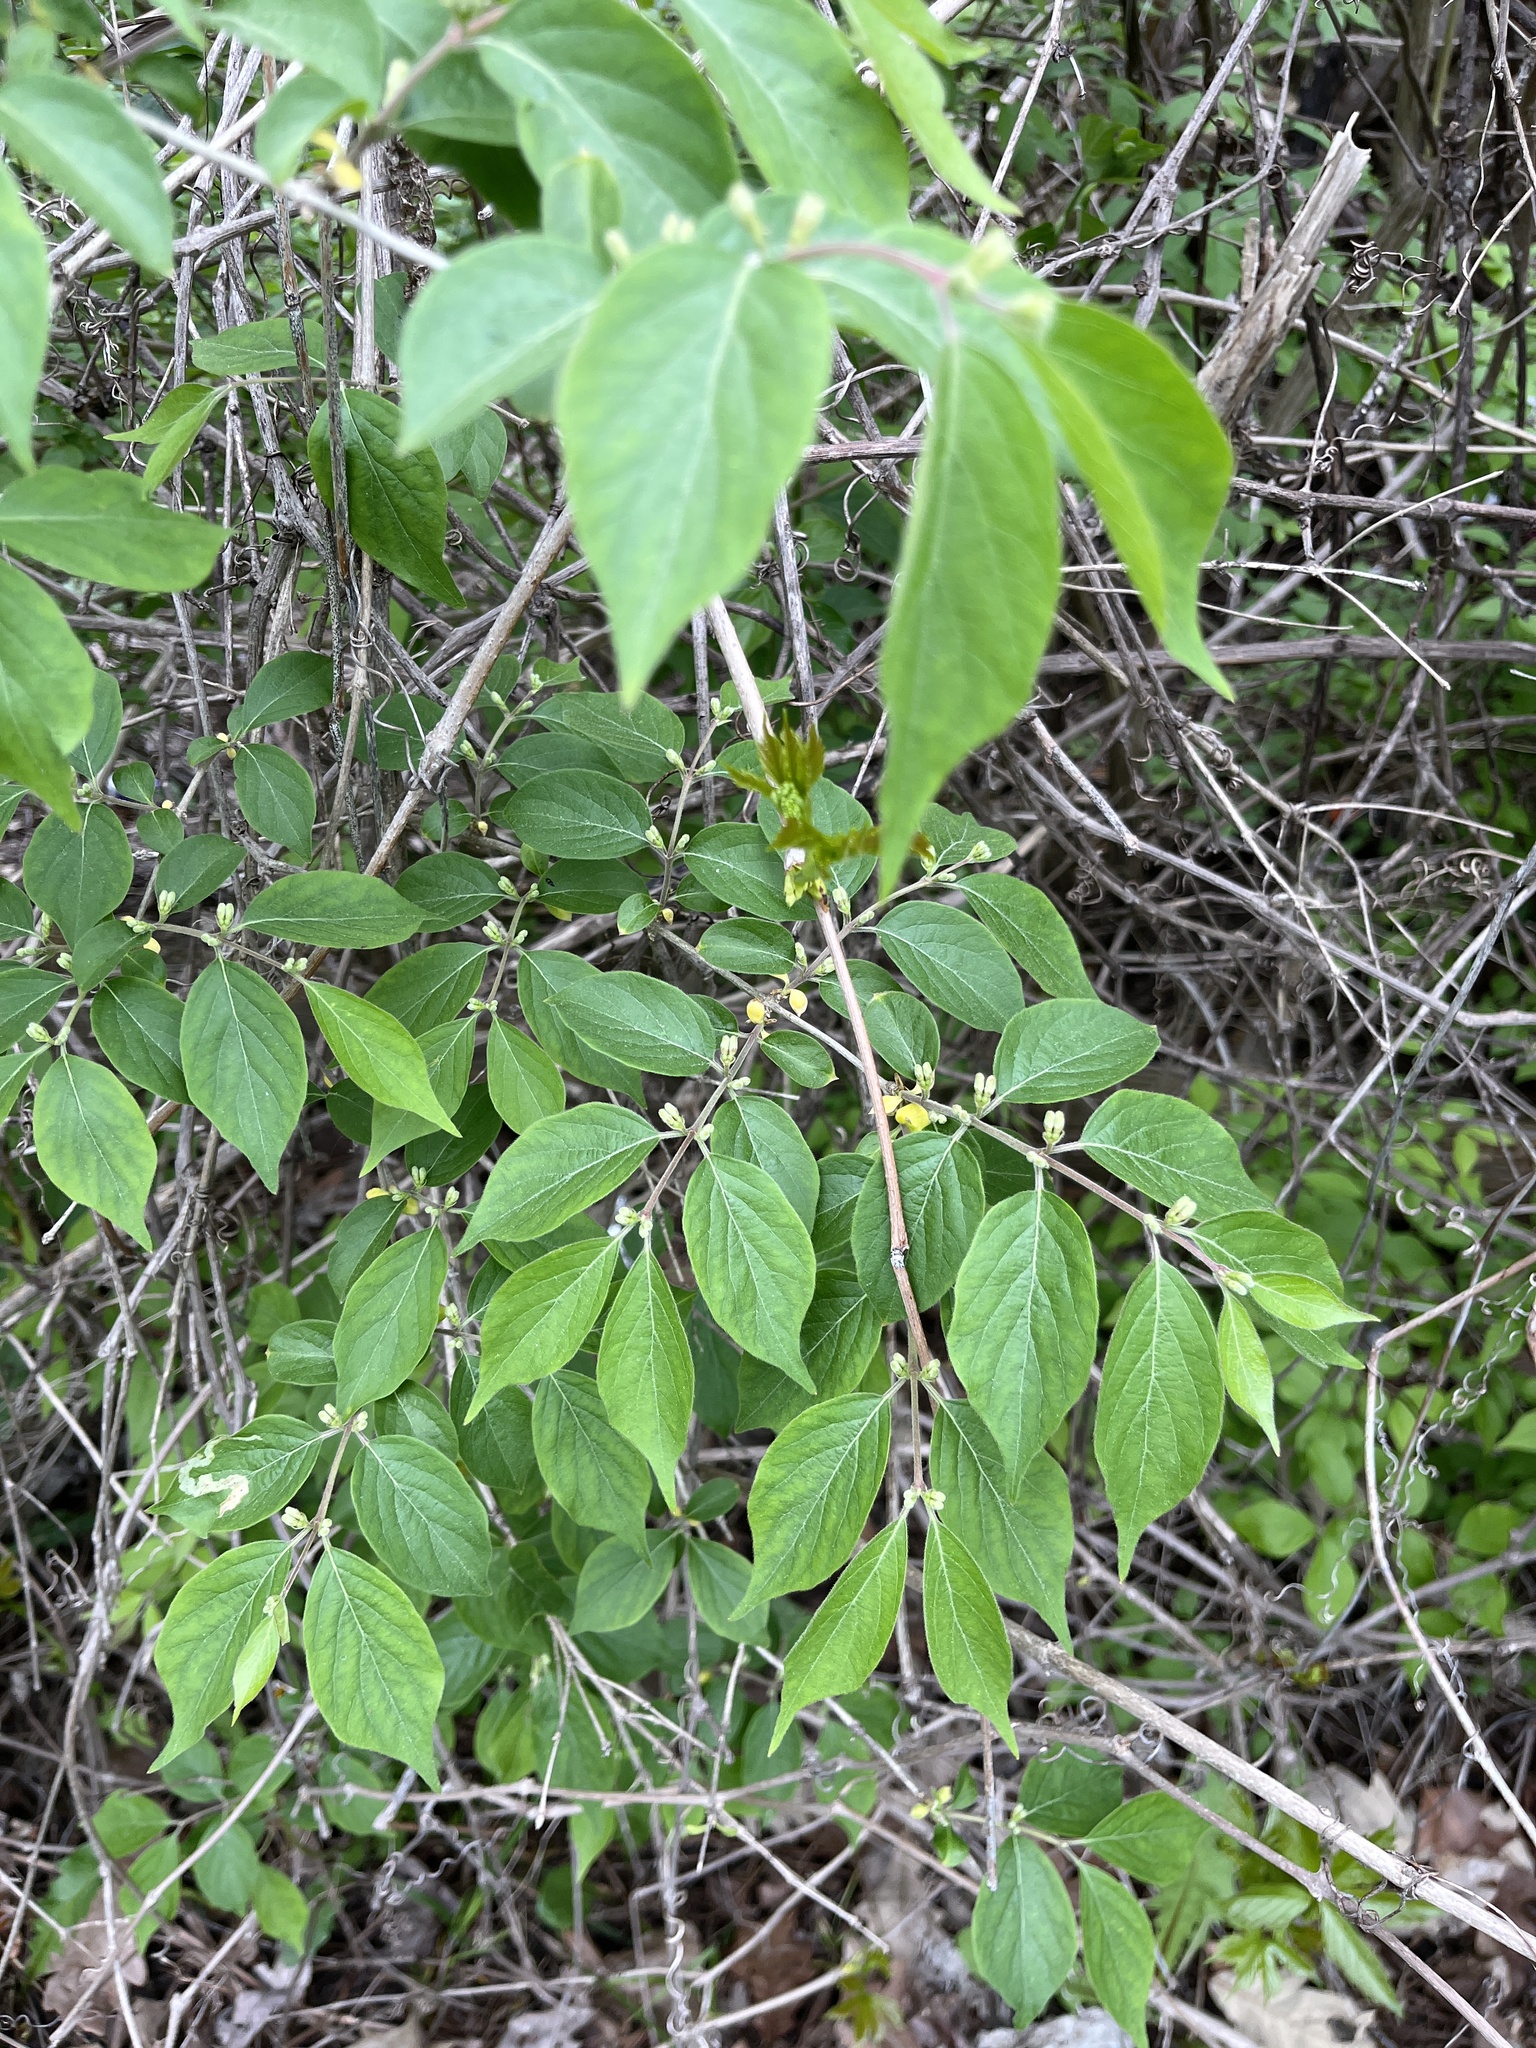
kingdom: Plantae
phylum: Tracheophyta
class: Magnoliopsida
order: Dipsacales
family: Caprifoliaceae
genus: Lonicera
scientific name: Lonicera maackii
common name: Amur honeysuckle
